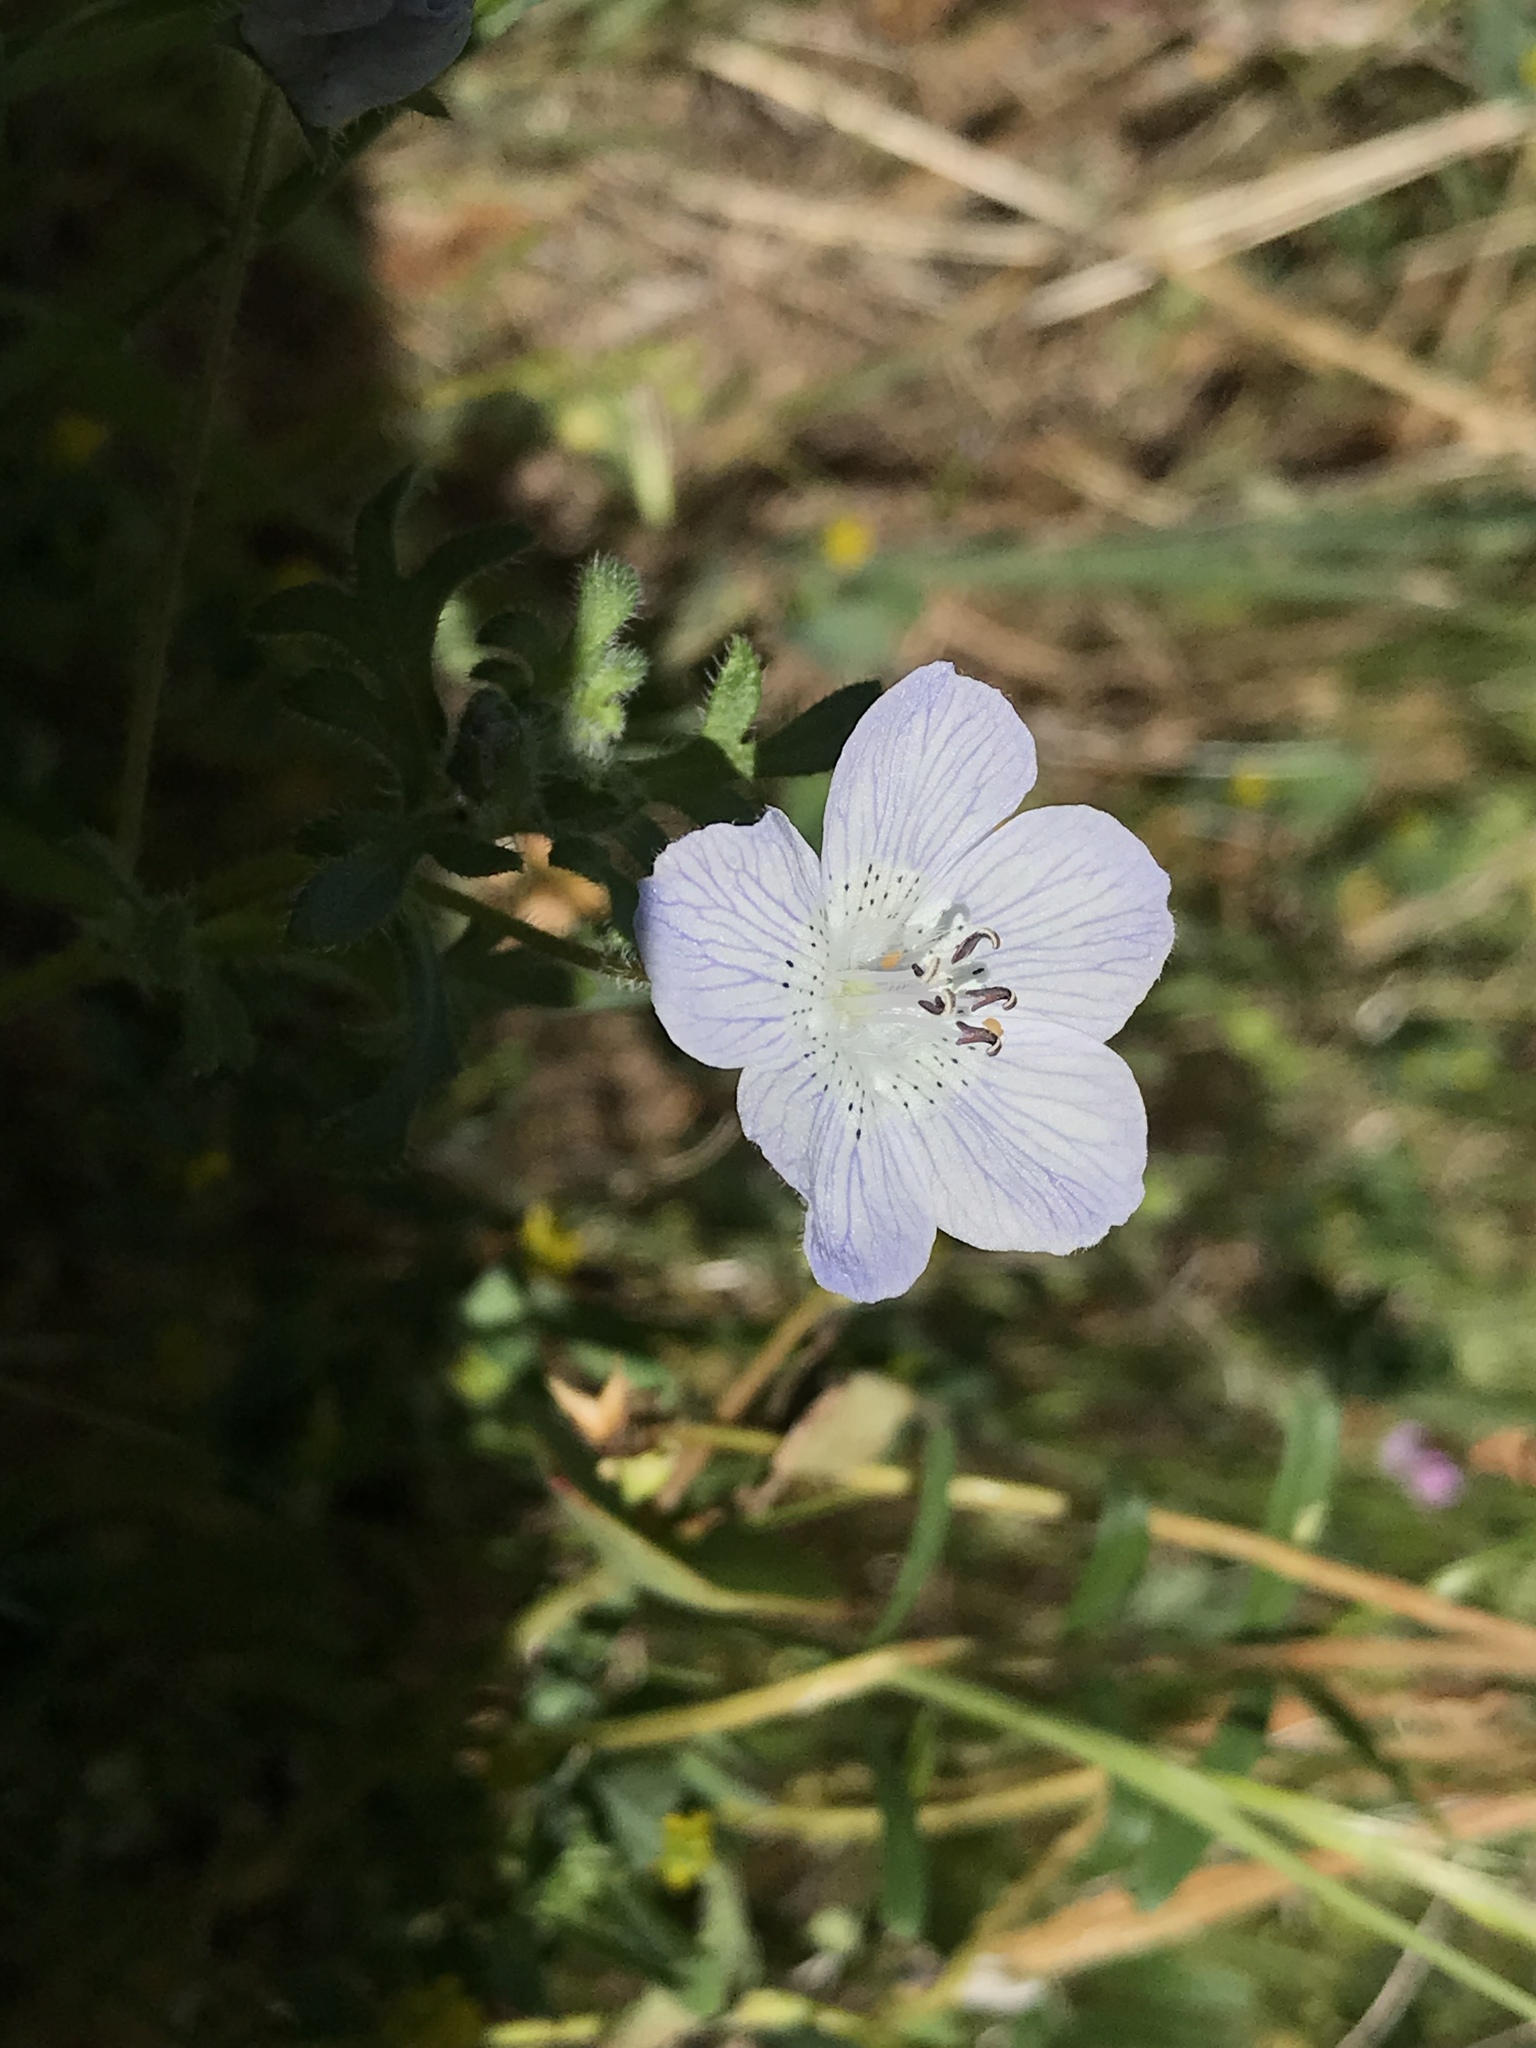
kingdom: Plantae
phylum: Tracheophyta
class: Magnoliopsida
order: Boraginales
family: Hydrophyllaceae
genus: Nemophila
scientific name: Nemophila menziesii
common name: Baby's-blue-eyes
